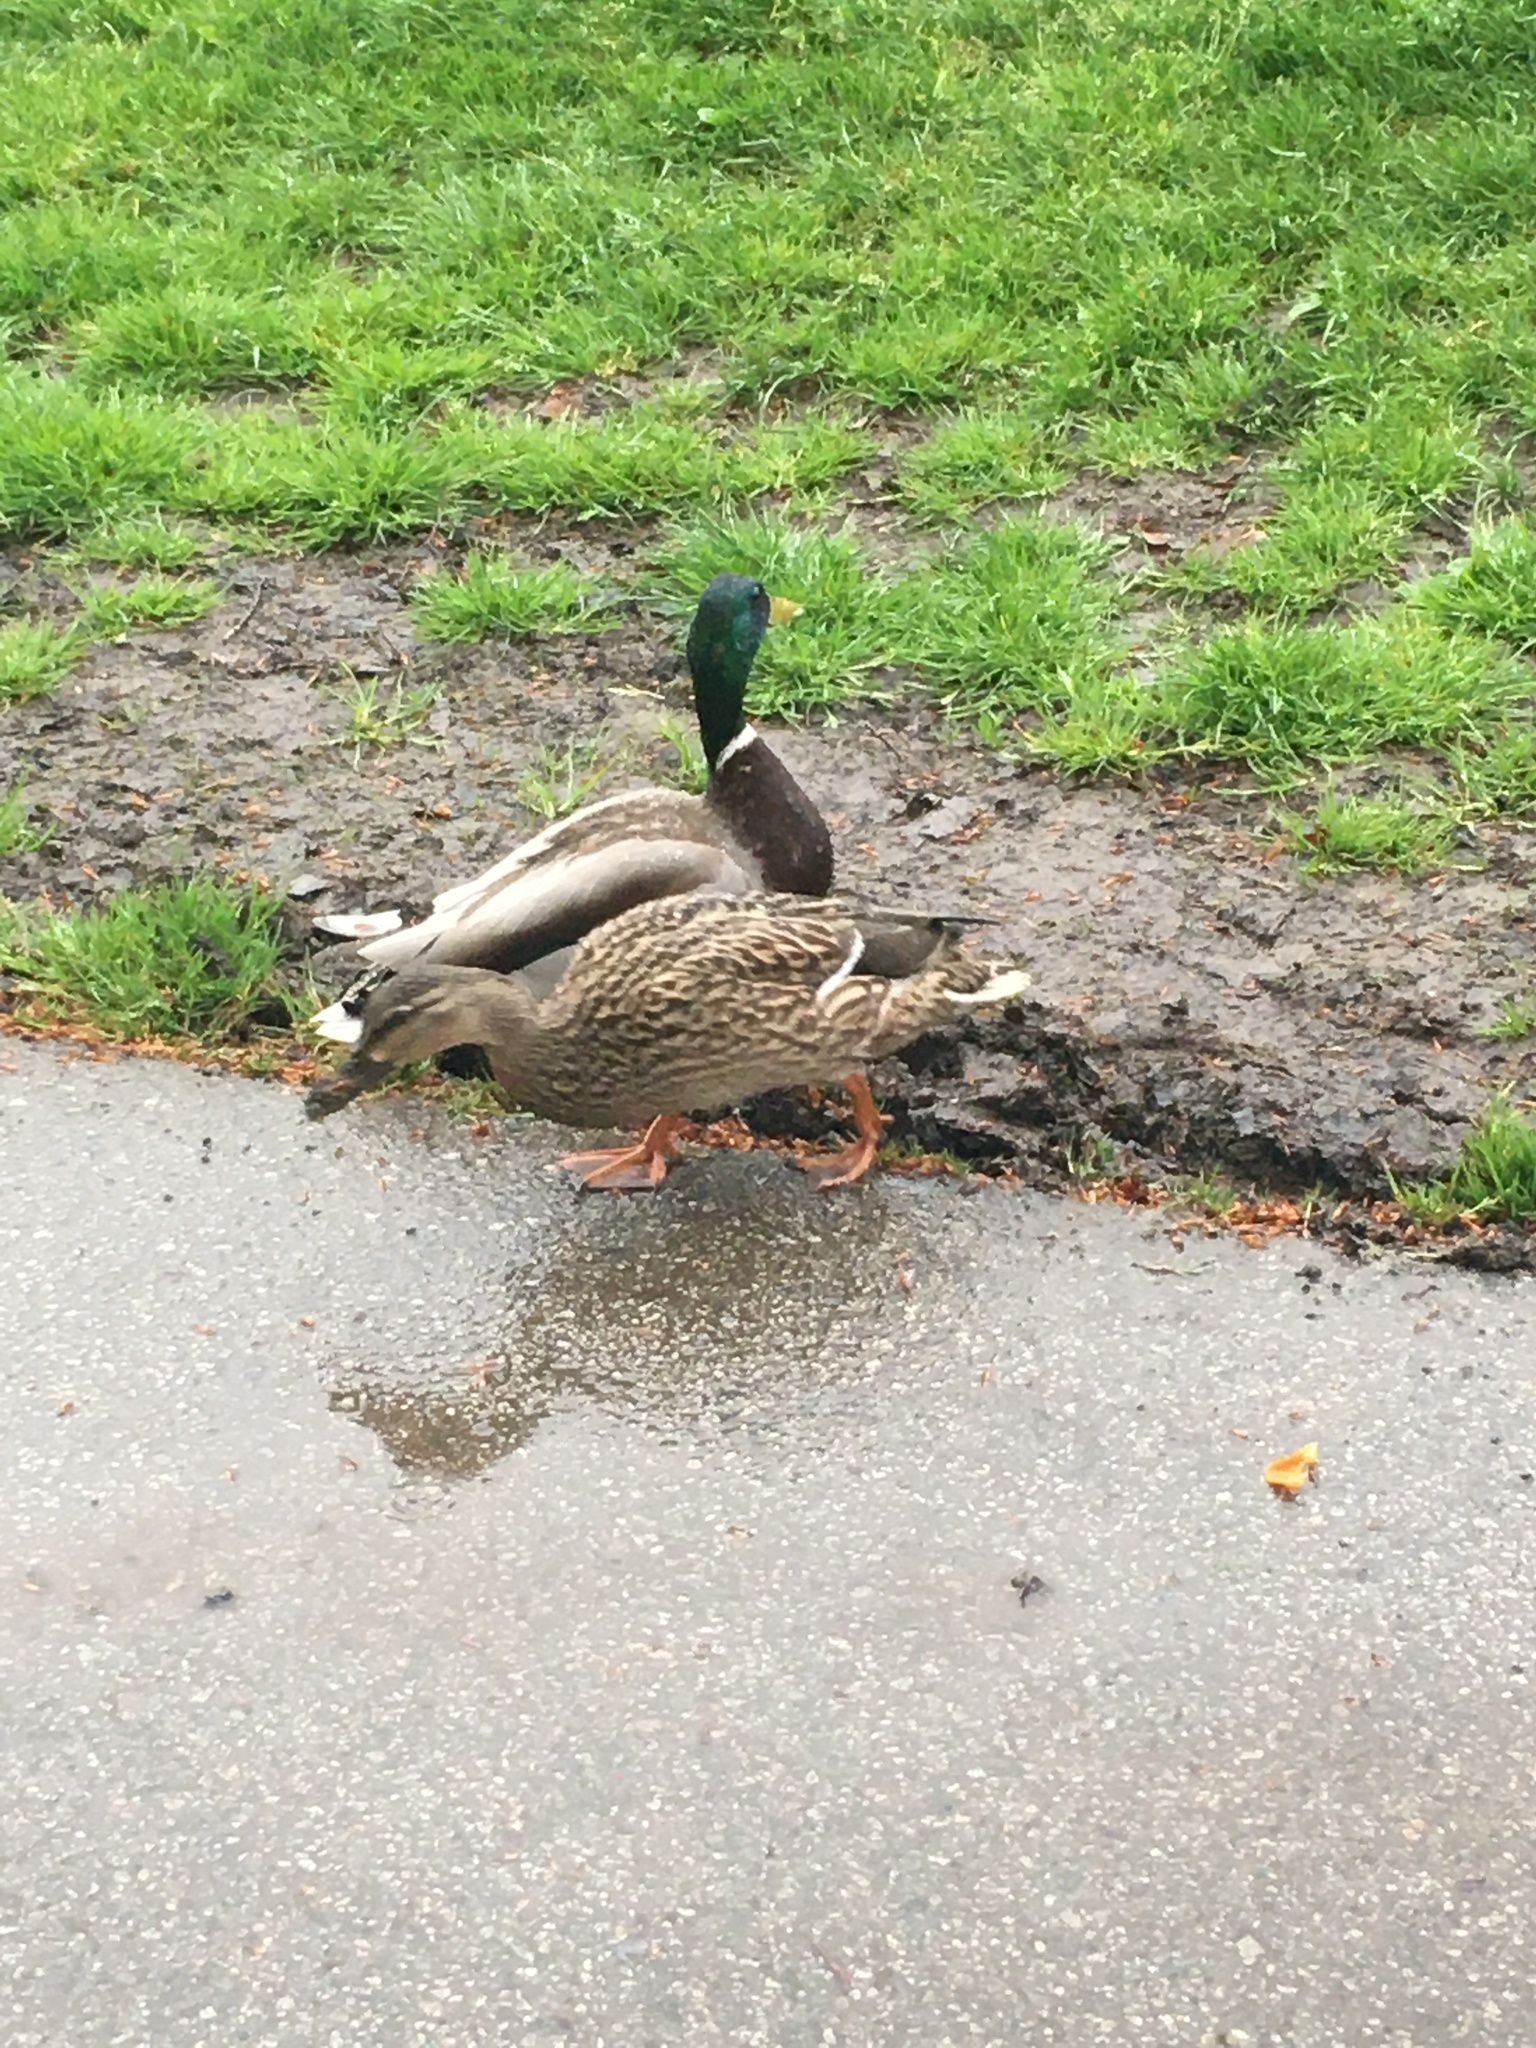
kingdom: Animalia
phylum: Chordata
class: Aves
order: Anseriformes
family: Anatidae
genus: Anas
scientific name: Anas platyrhynchos
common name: Mallard
